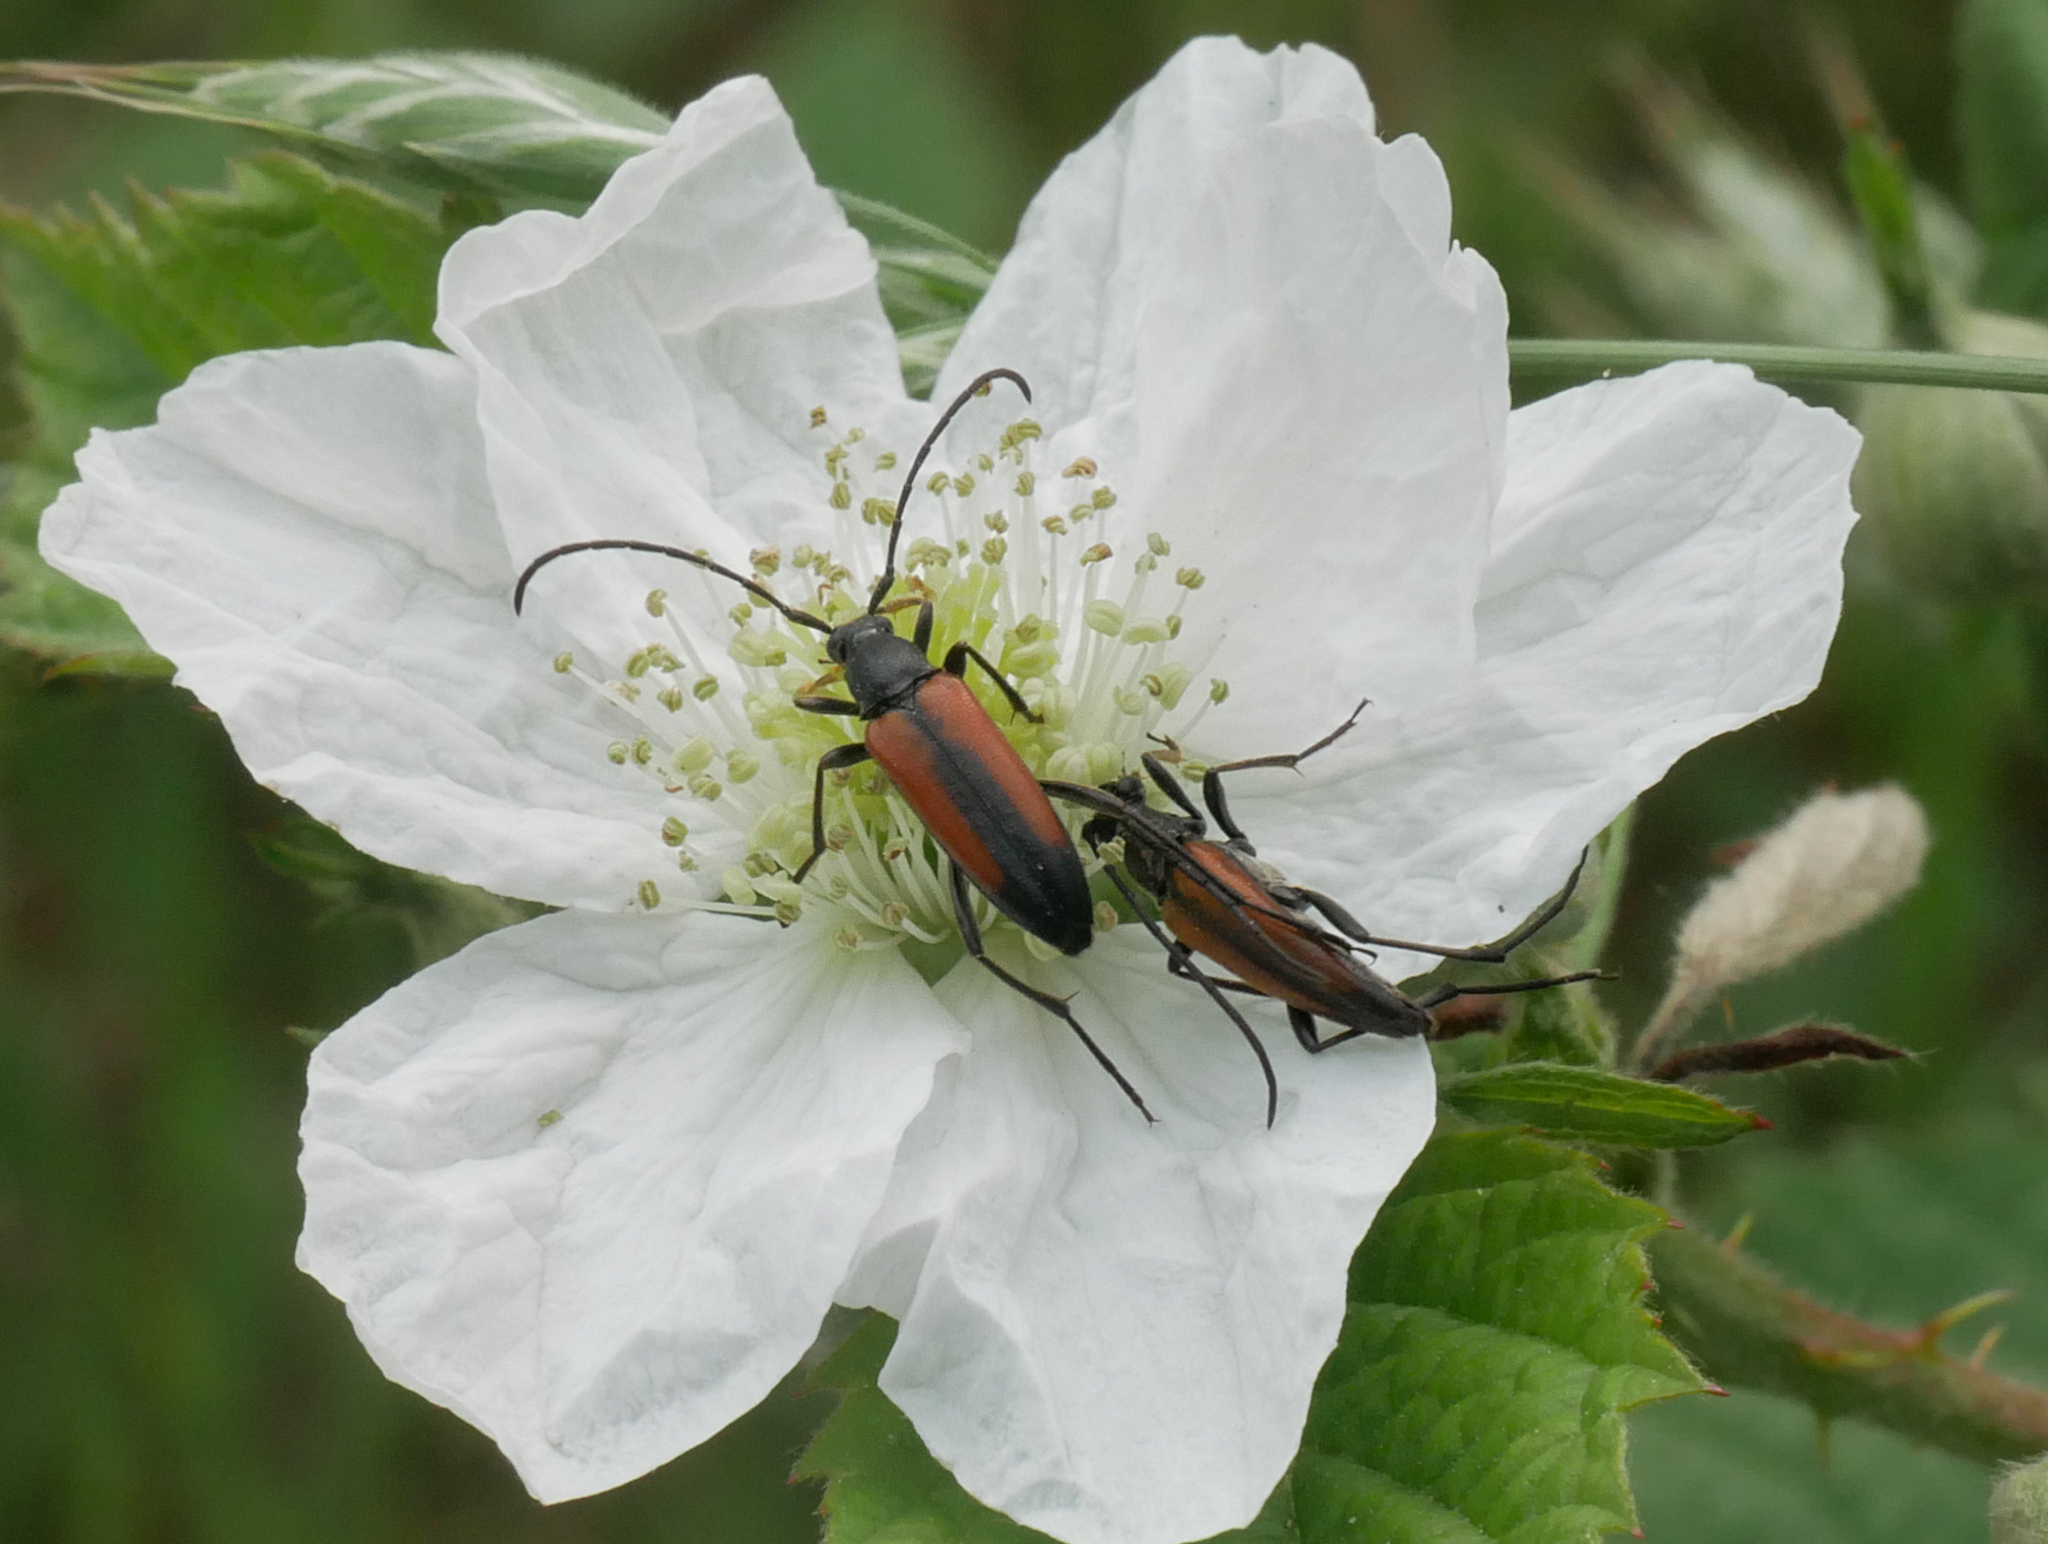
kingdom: Animalia
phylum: Arthropoda
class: Insecta
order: Coleoptera
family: Cerambycidae
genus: Stenurella
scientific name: Stenurella melanura
